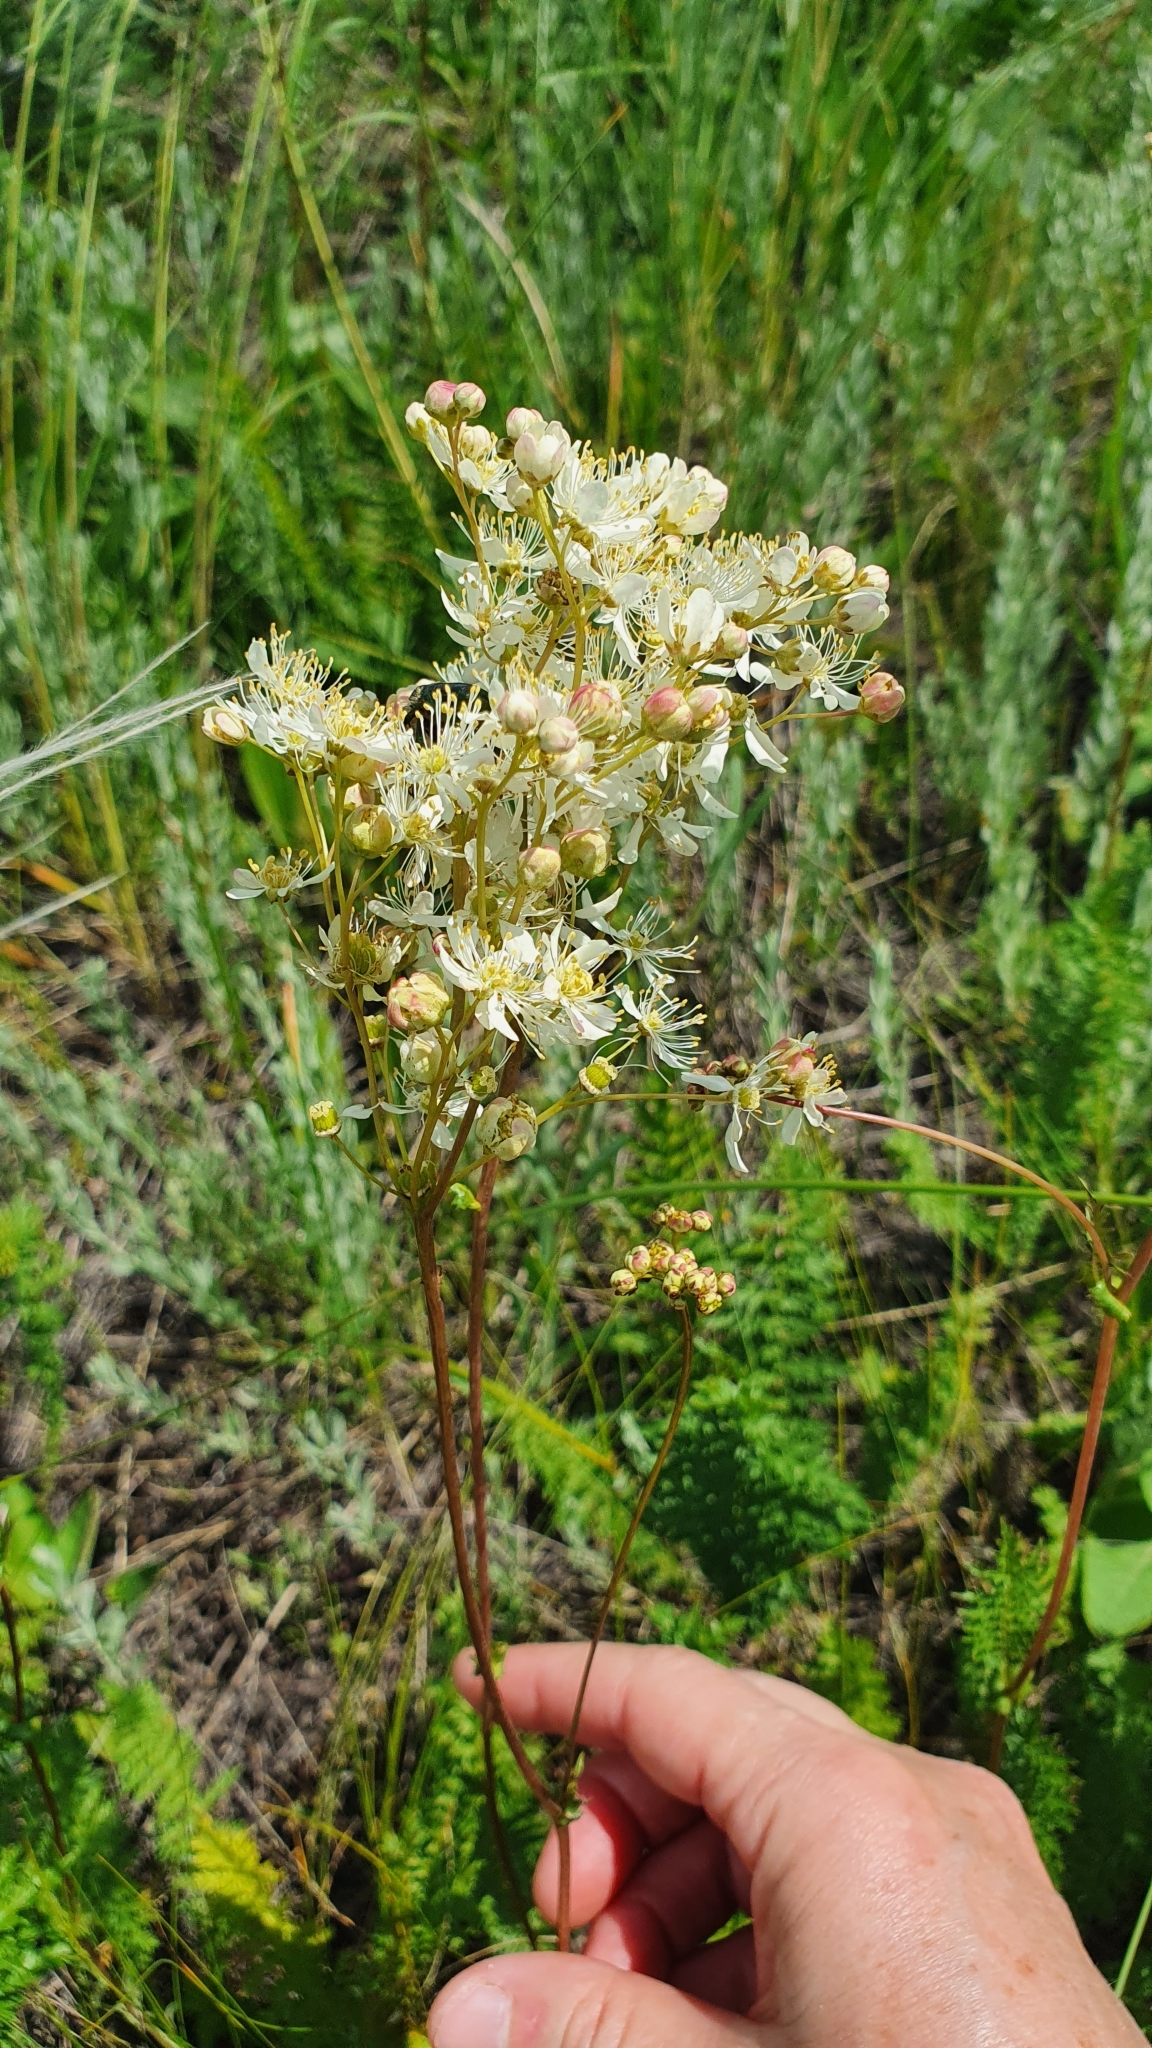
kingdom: Plantae
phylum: Tracheophyta
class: Magnoliopsida
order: Rosales
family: Rosaceae
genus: Filipendula
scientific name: Filipendula vulgaris
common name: Dropwort
